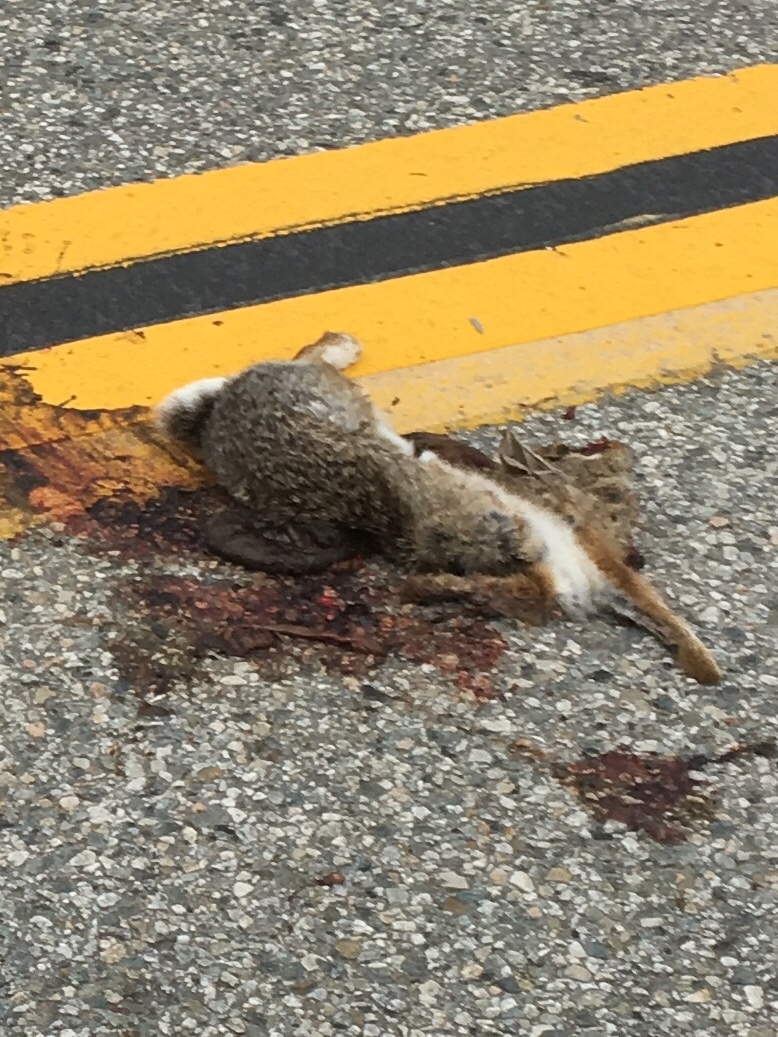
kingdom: Animalia
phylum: Chordata
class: Mammalia
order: Lagomorpha
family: Leporidae
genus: Sylvilagus
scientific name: Sylvilagus audubonii
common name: Desert cottontail
